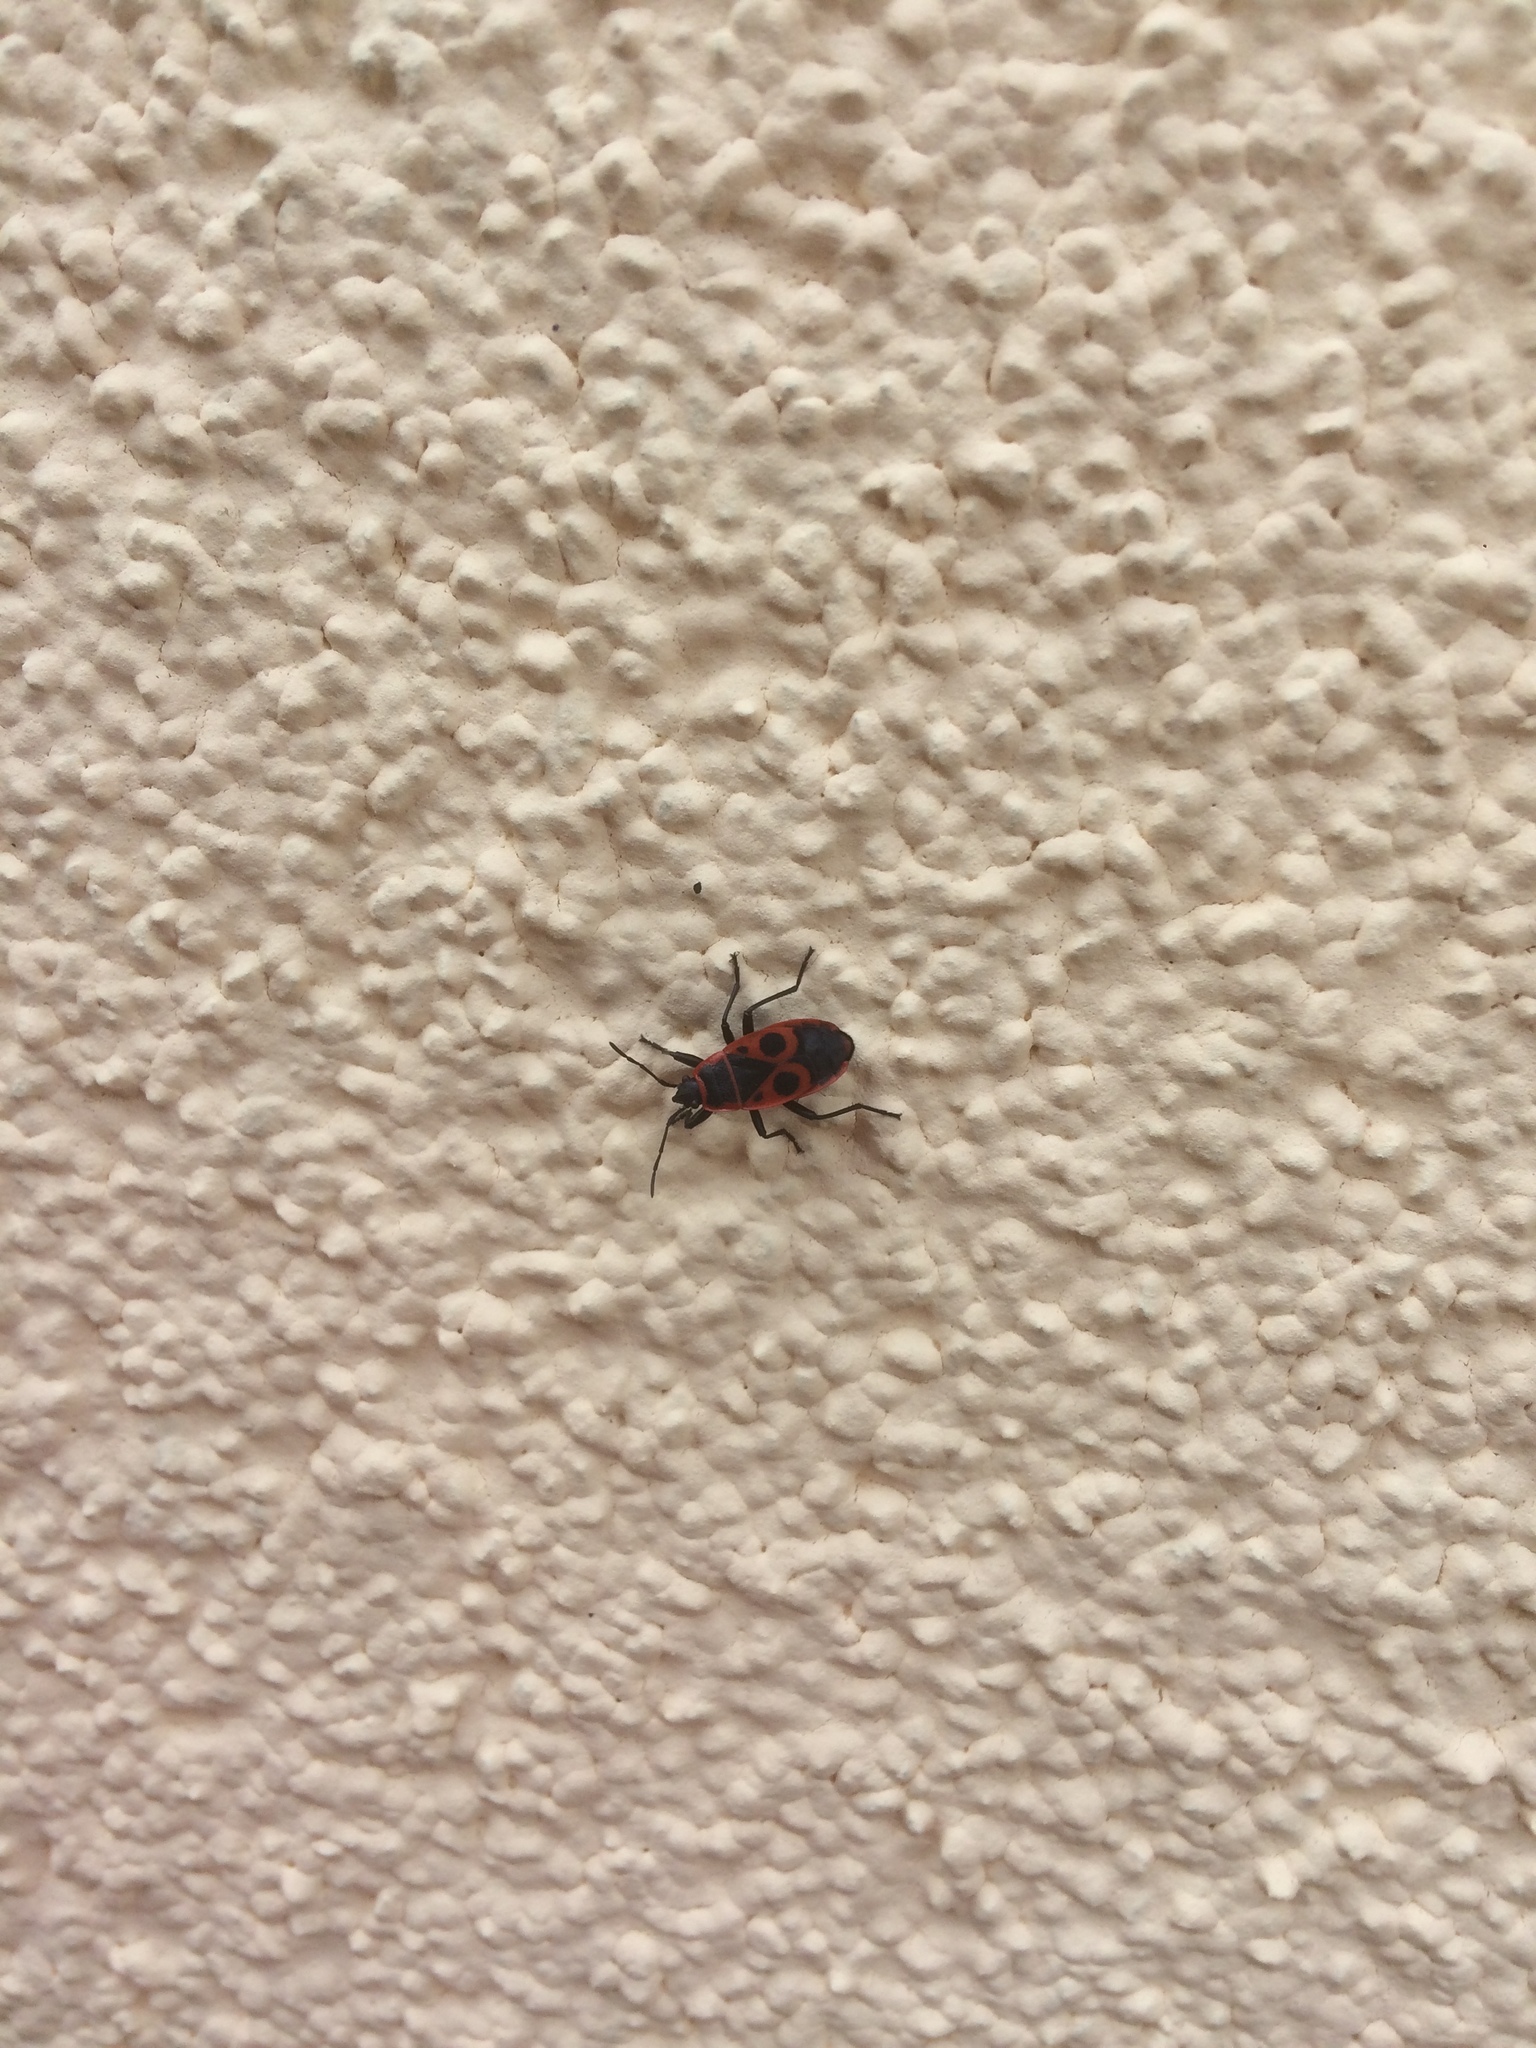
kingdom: Animalia
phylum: Arthropoda
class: Insecta
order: Hemiptera
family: Pyrrhocoridae
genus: Pyrrhocoris
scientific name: Pyrrhocoris apterus
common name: Firebug
